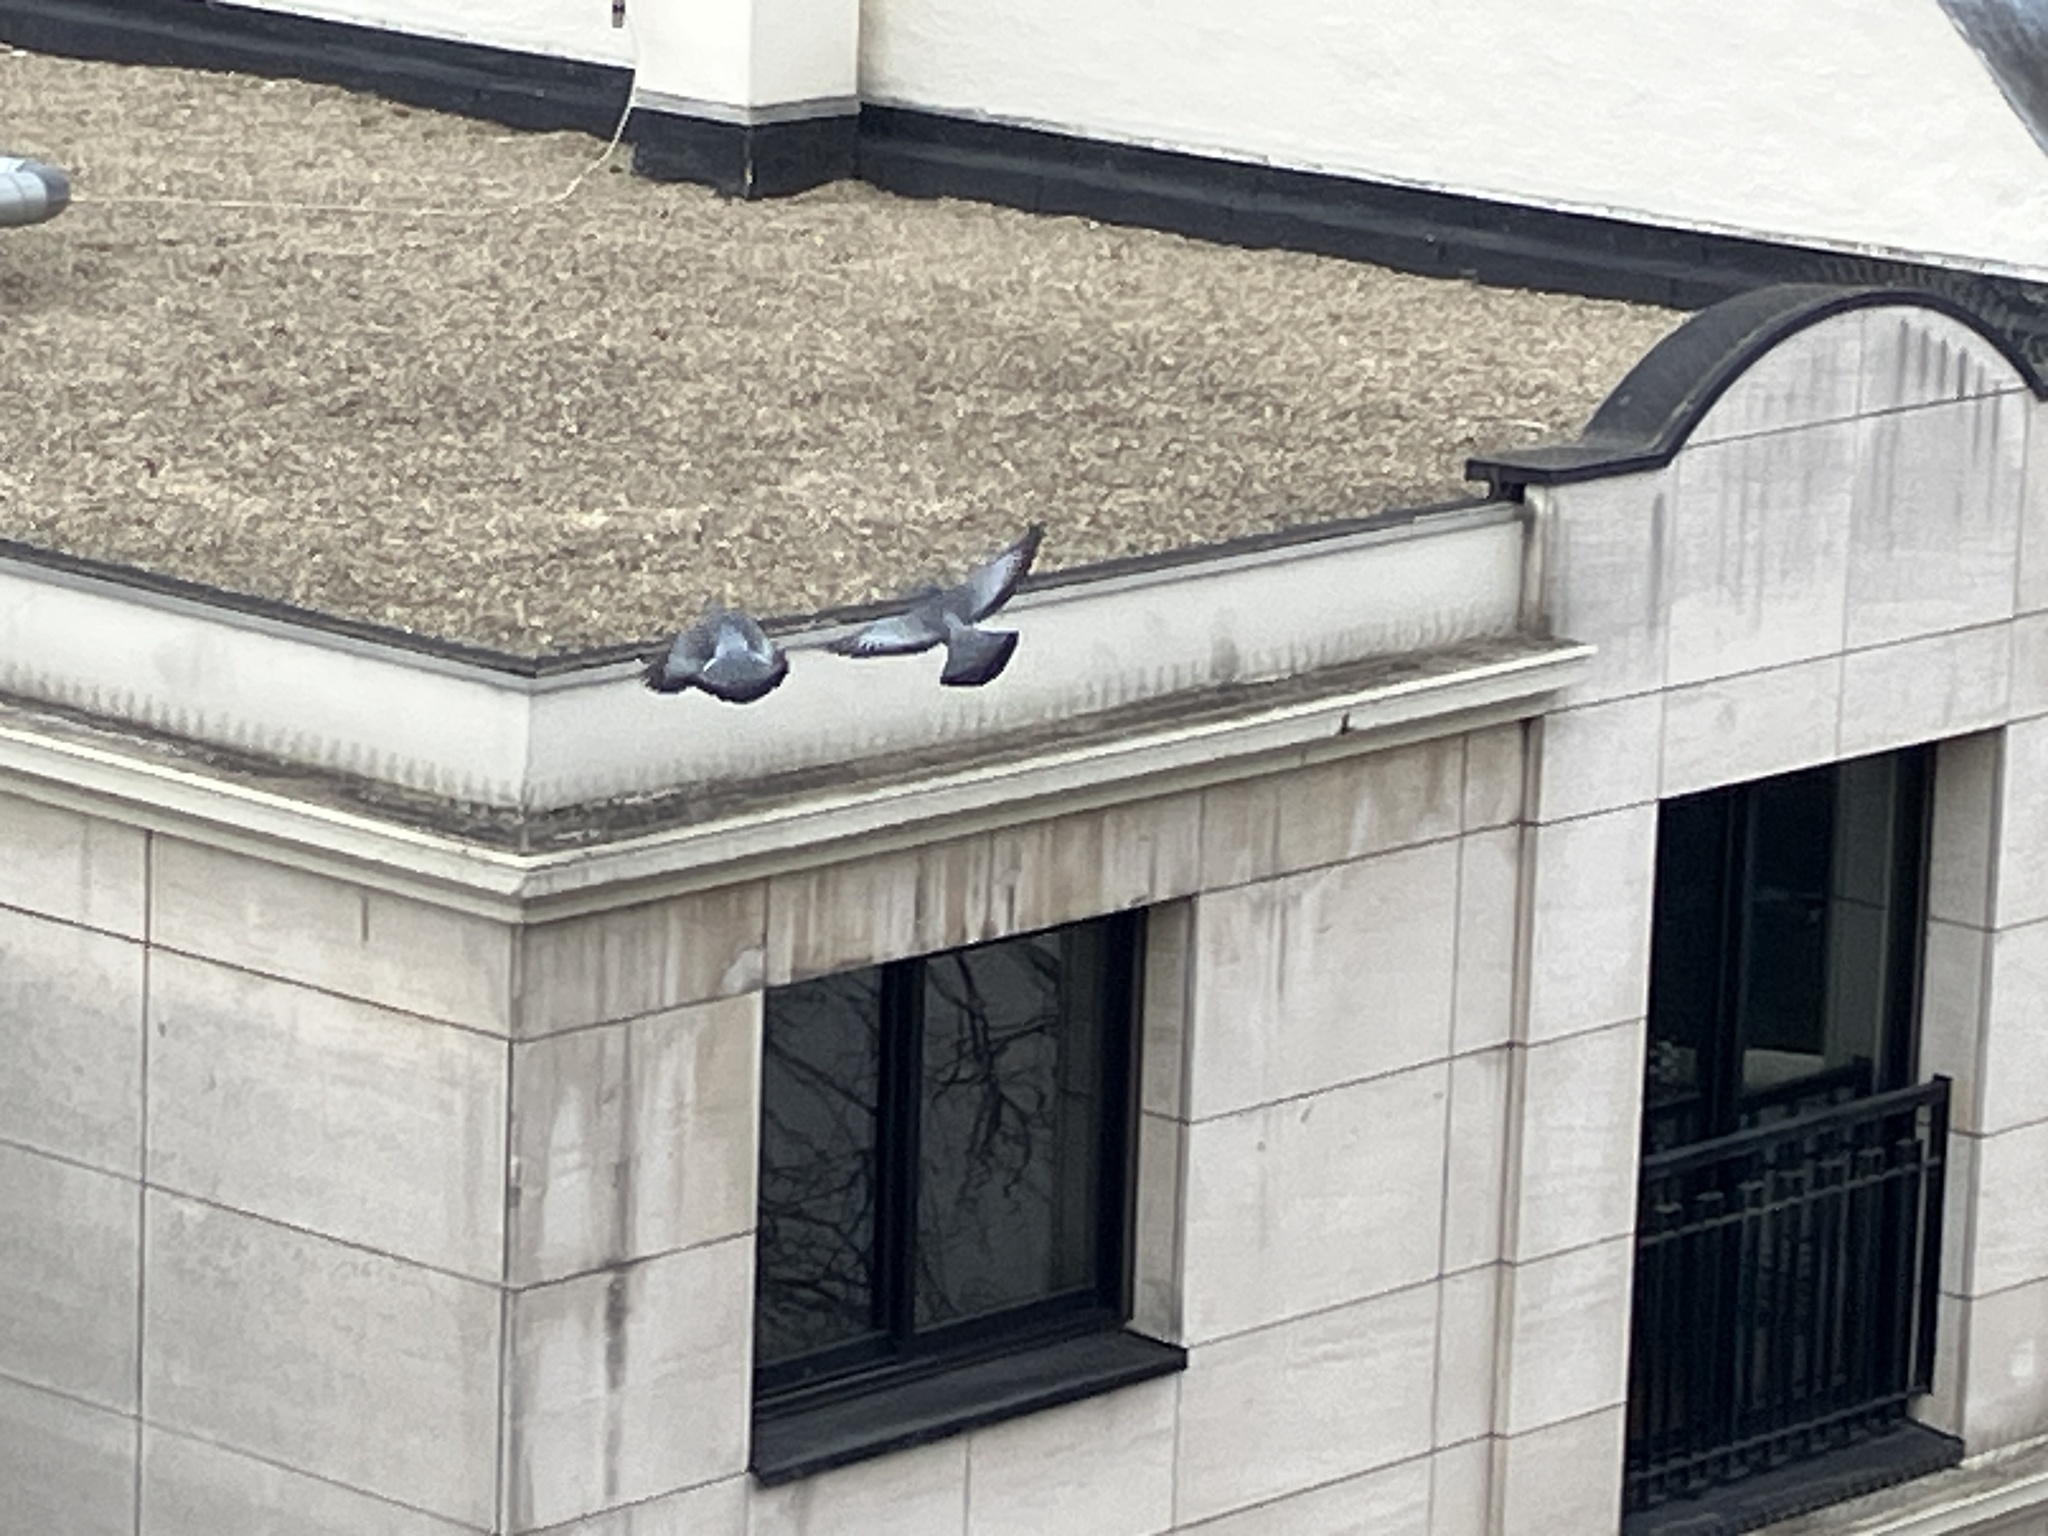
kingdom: Animalia
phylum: Chordata
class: Aves
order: Columbiformes
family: Columbidae
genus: Columba
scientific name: Columba oenas
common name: Stock dove
